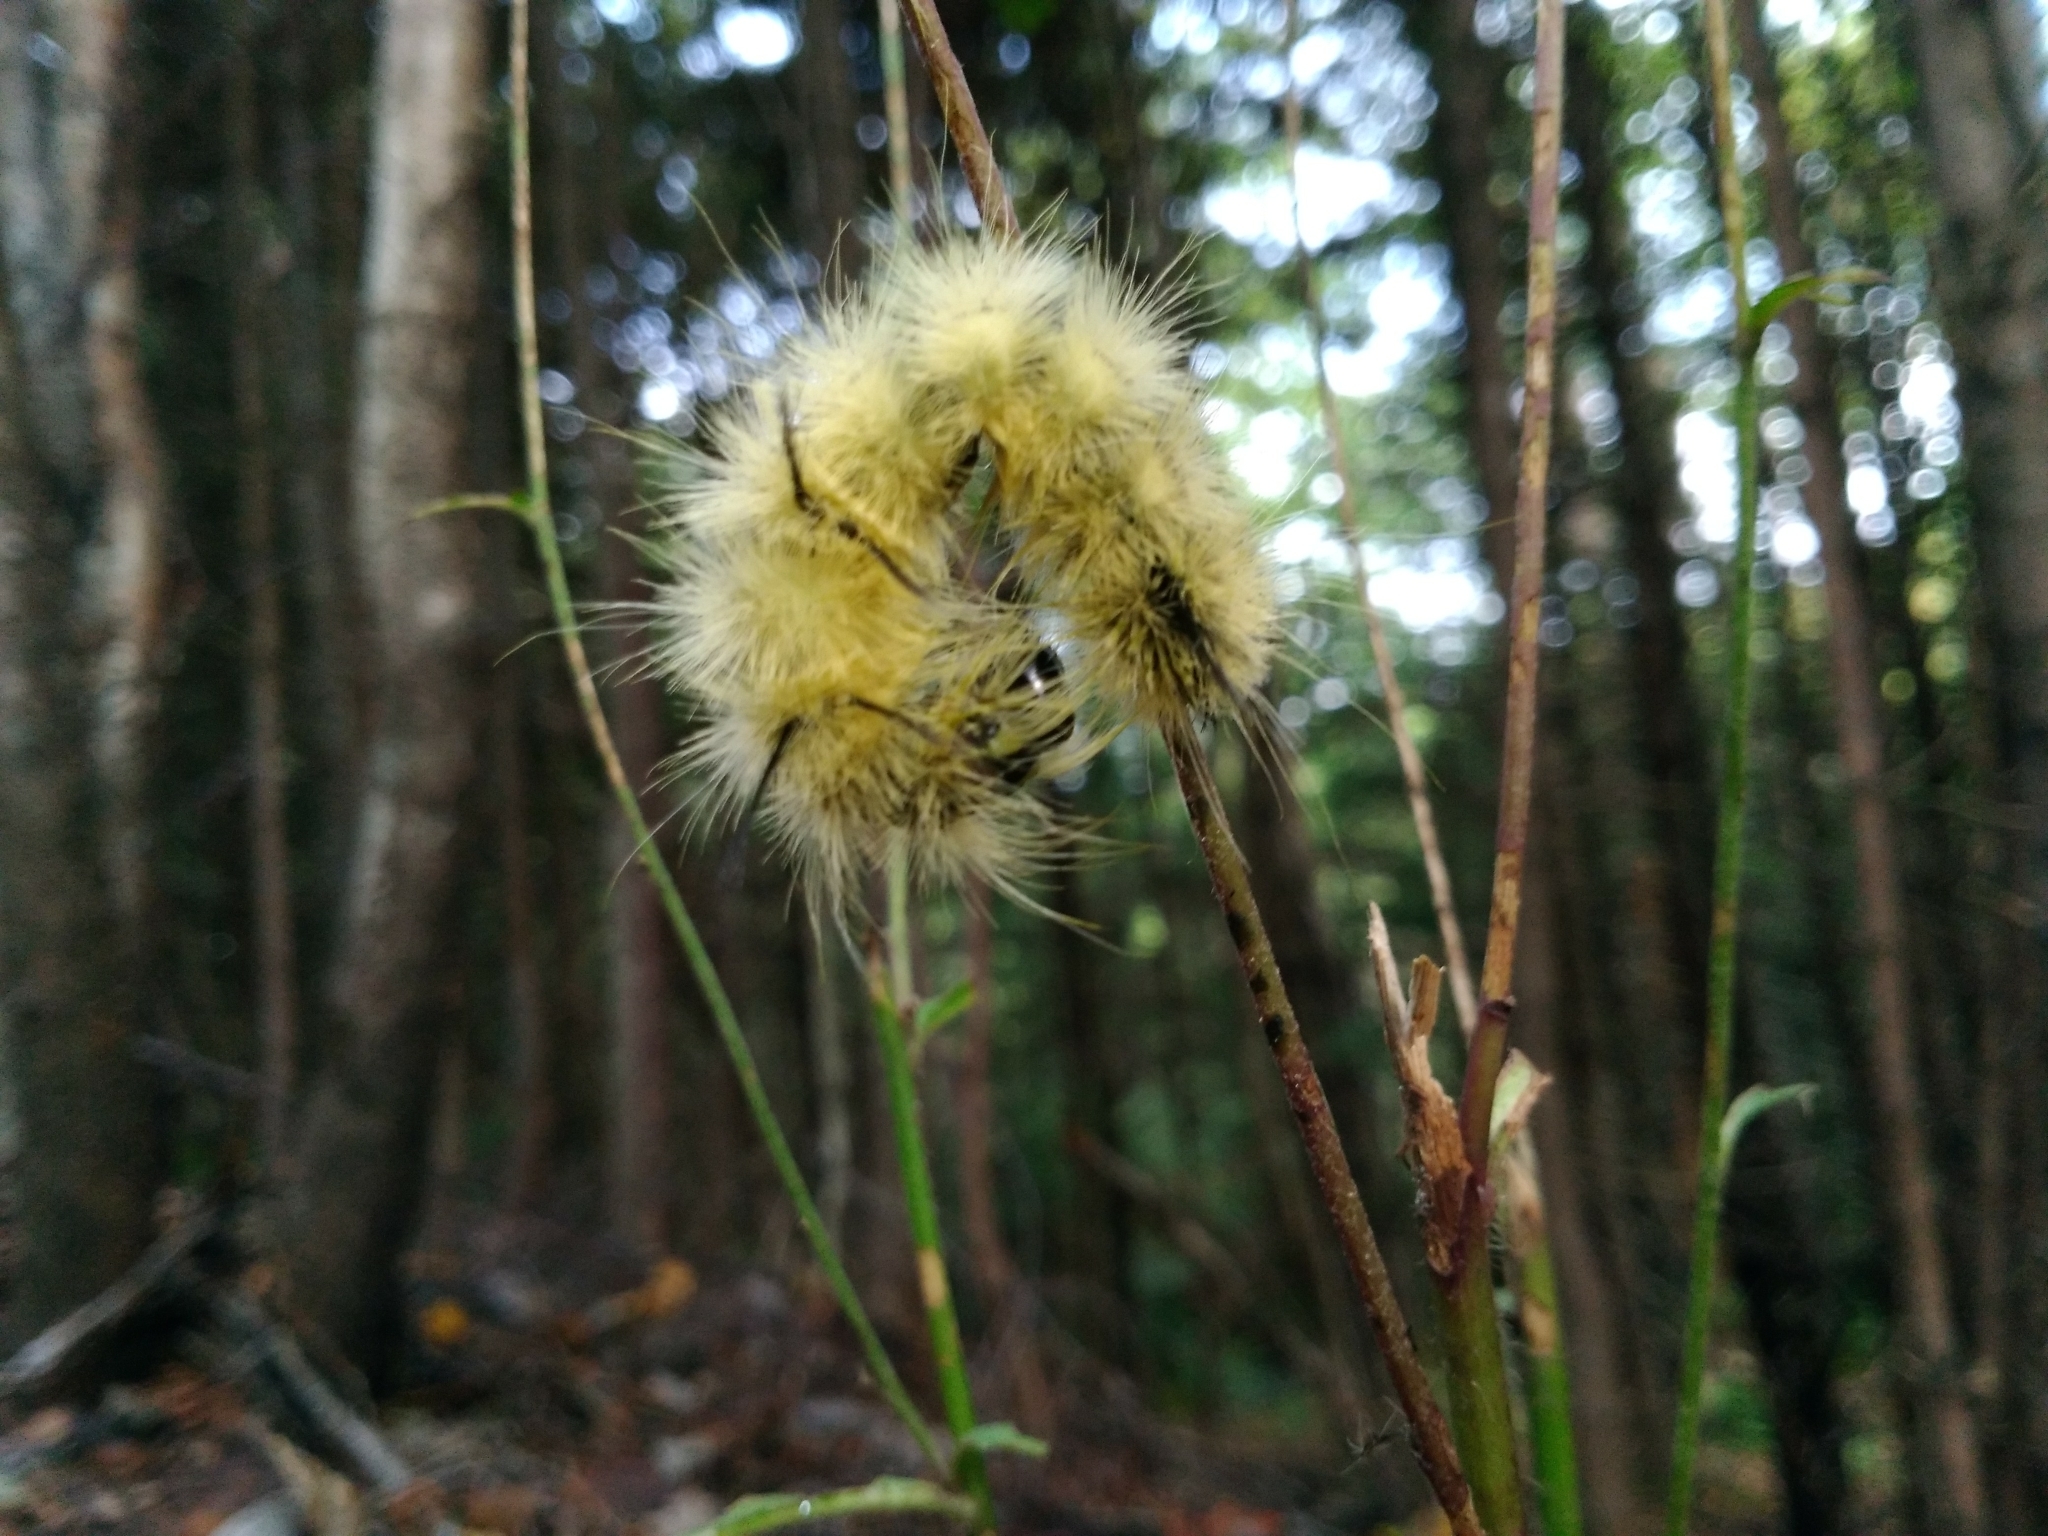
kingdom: Animalia
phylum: Arthropoda
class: Insecta
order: Lepidoptera
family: Noctuidae
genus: Acronicta
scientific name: Acronicta americana
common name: American dagger
